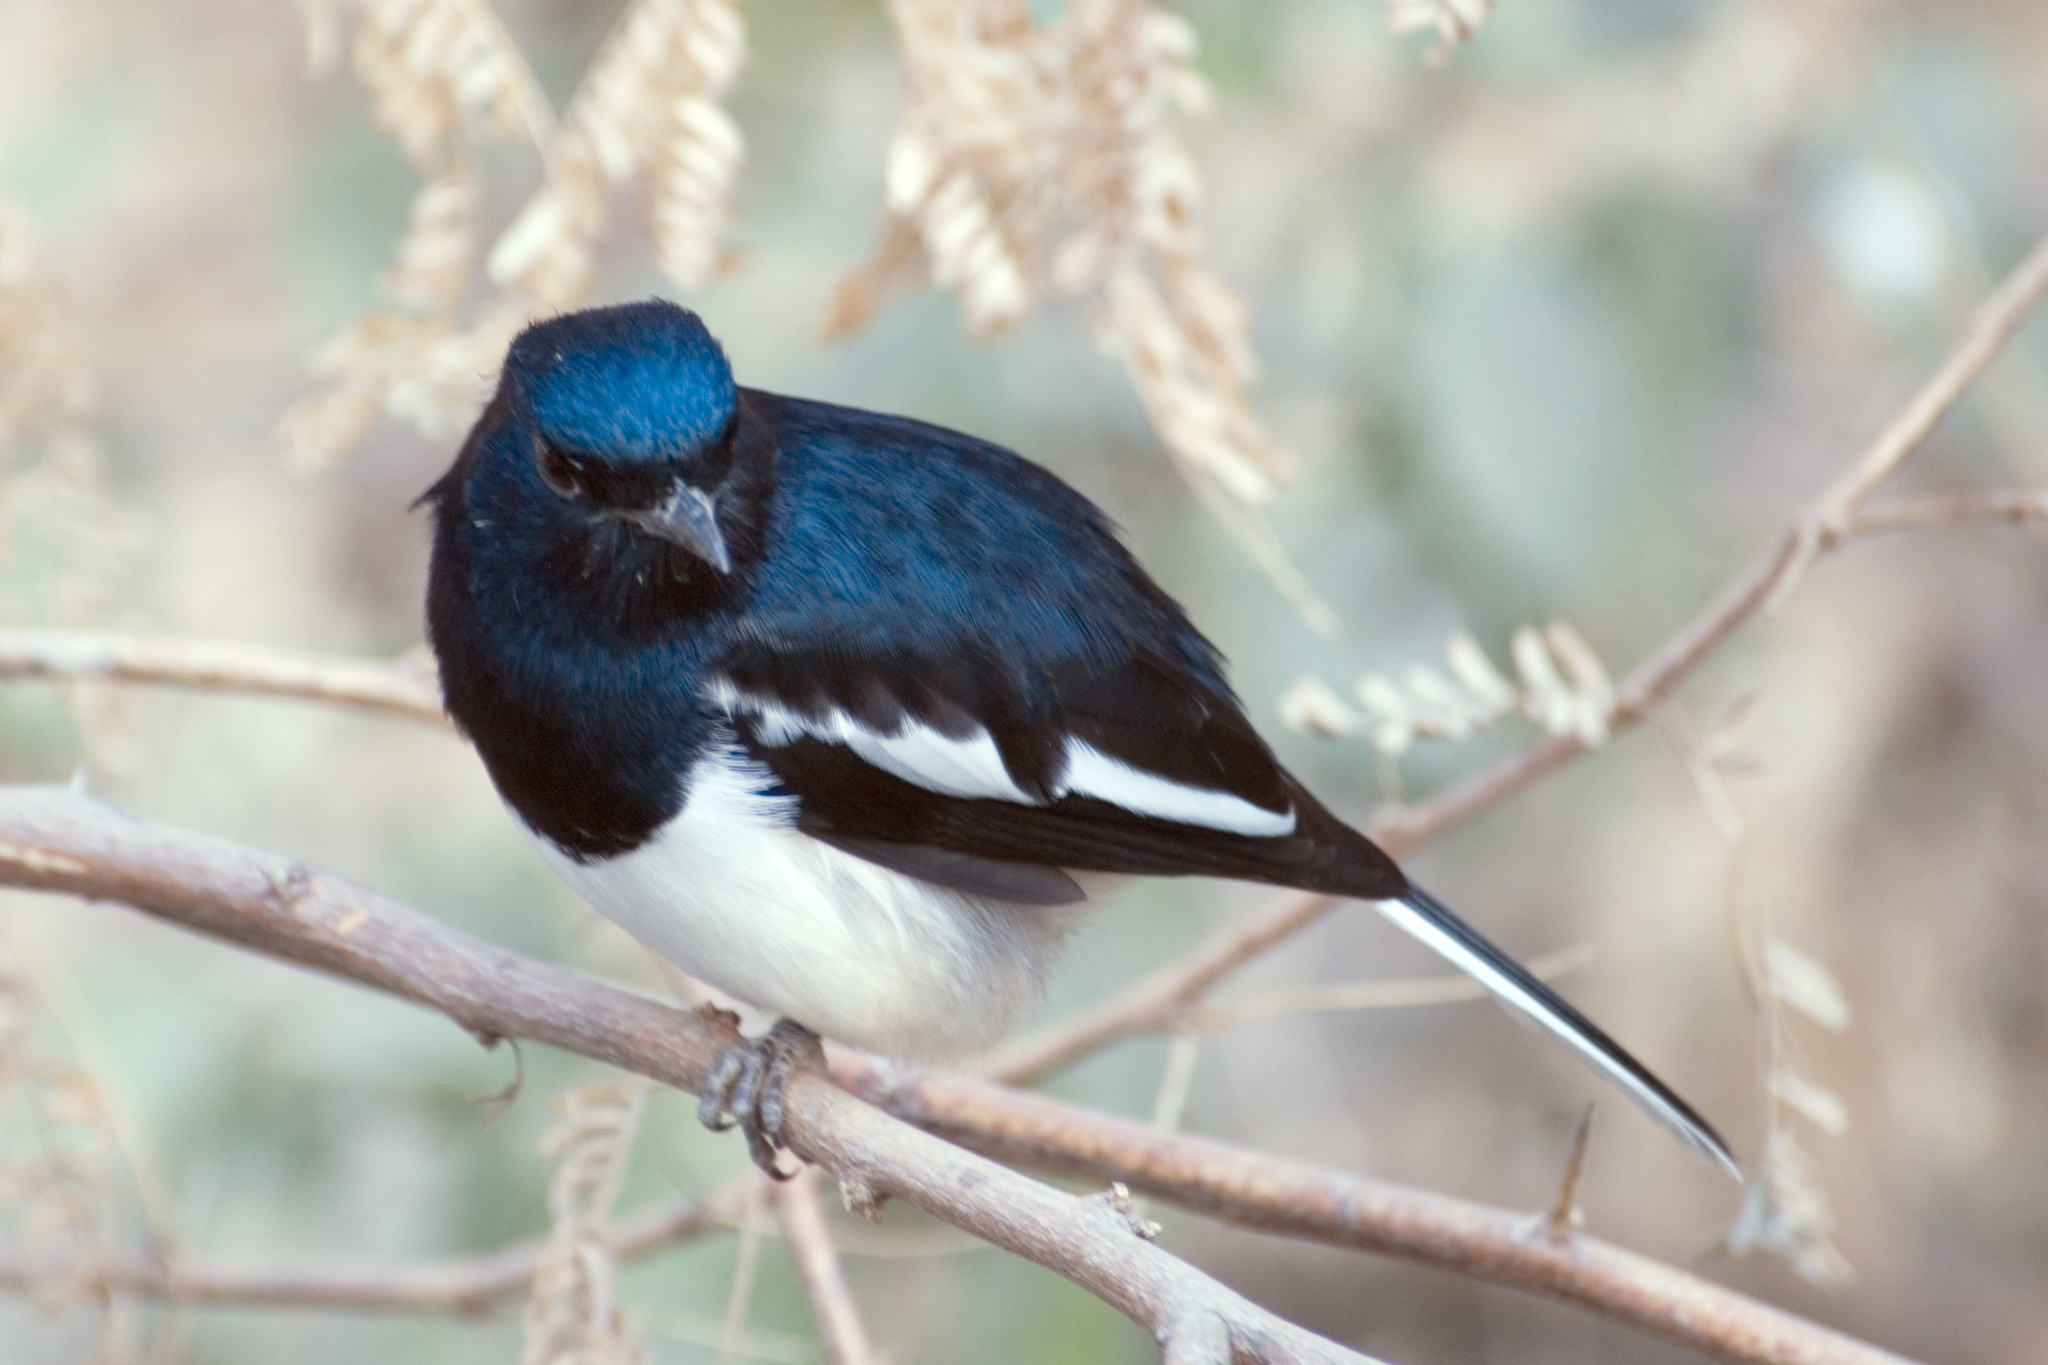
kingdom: Animalia
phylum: Chordata
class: Aves
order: Passeriformes
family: Muscicapidae
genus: Copsychus
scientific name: Copsychus saularis
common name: Oriental magpie-robin
